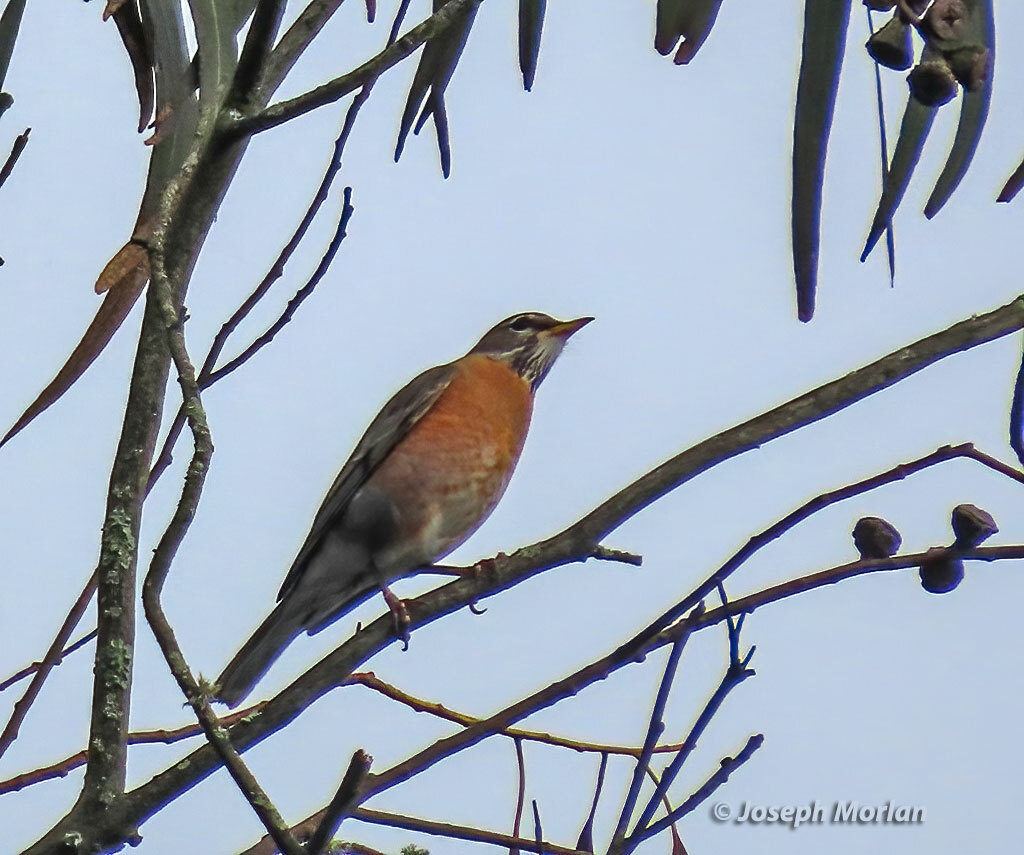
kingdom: Animalia
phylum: Chordata
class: Aves
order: Passeriformes
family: Turdidae
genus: Turdus
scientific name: Turdus migratorius
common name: American robin
